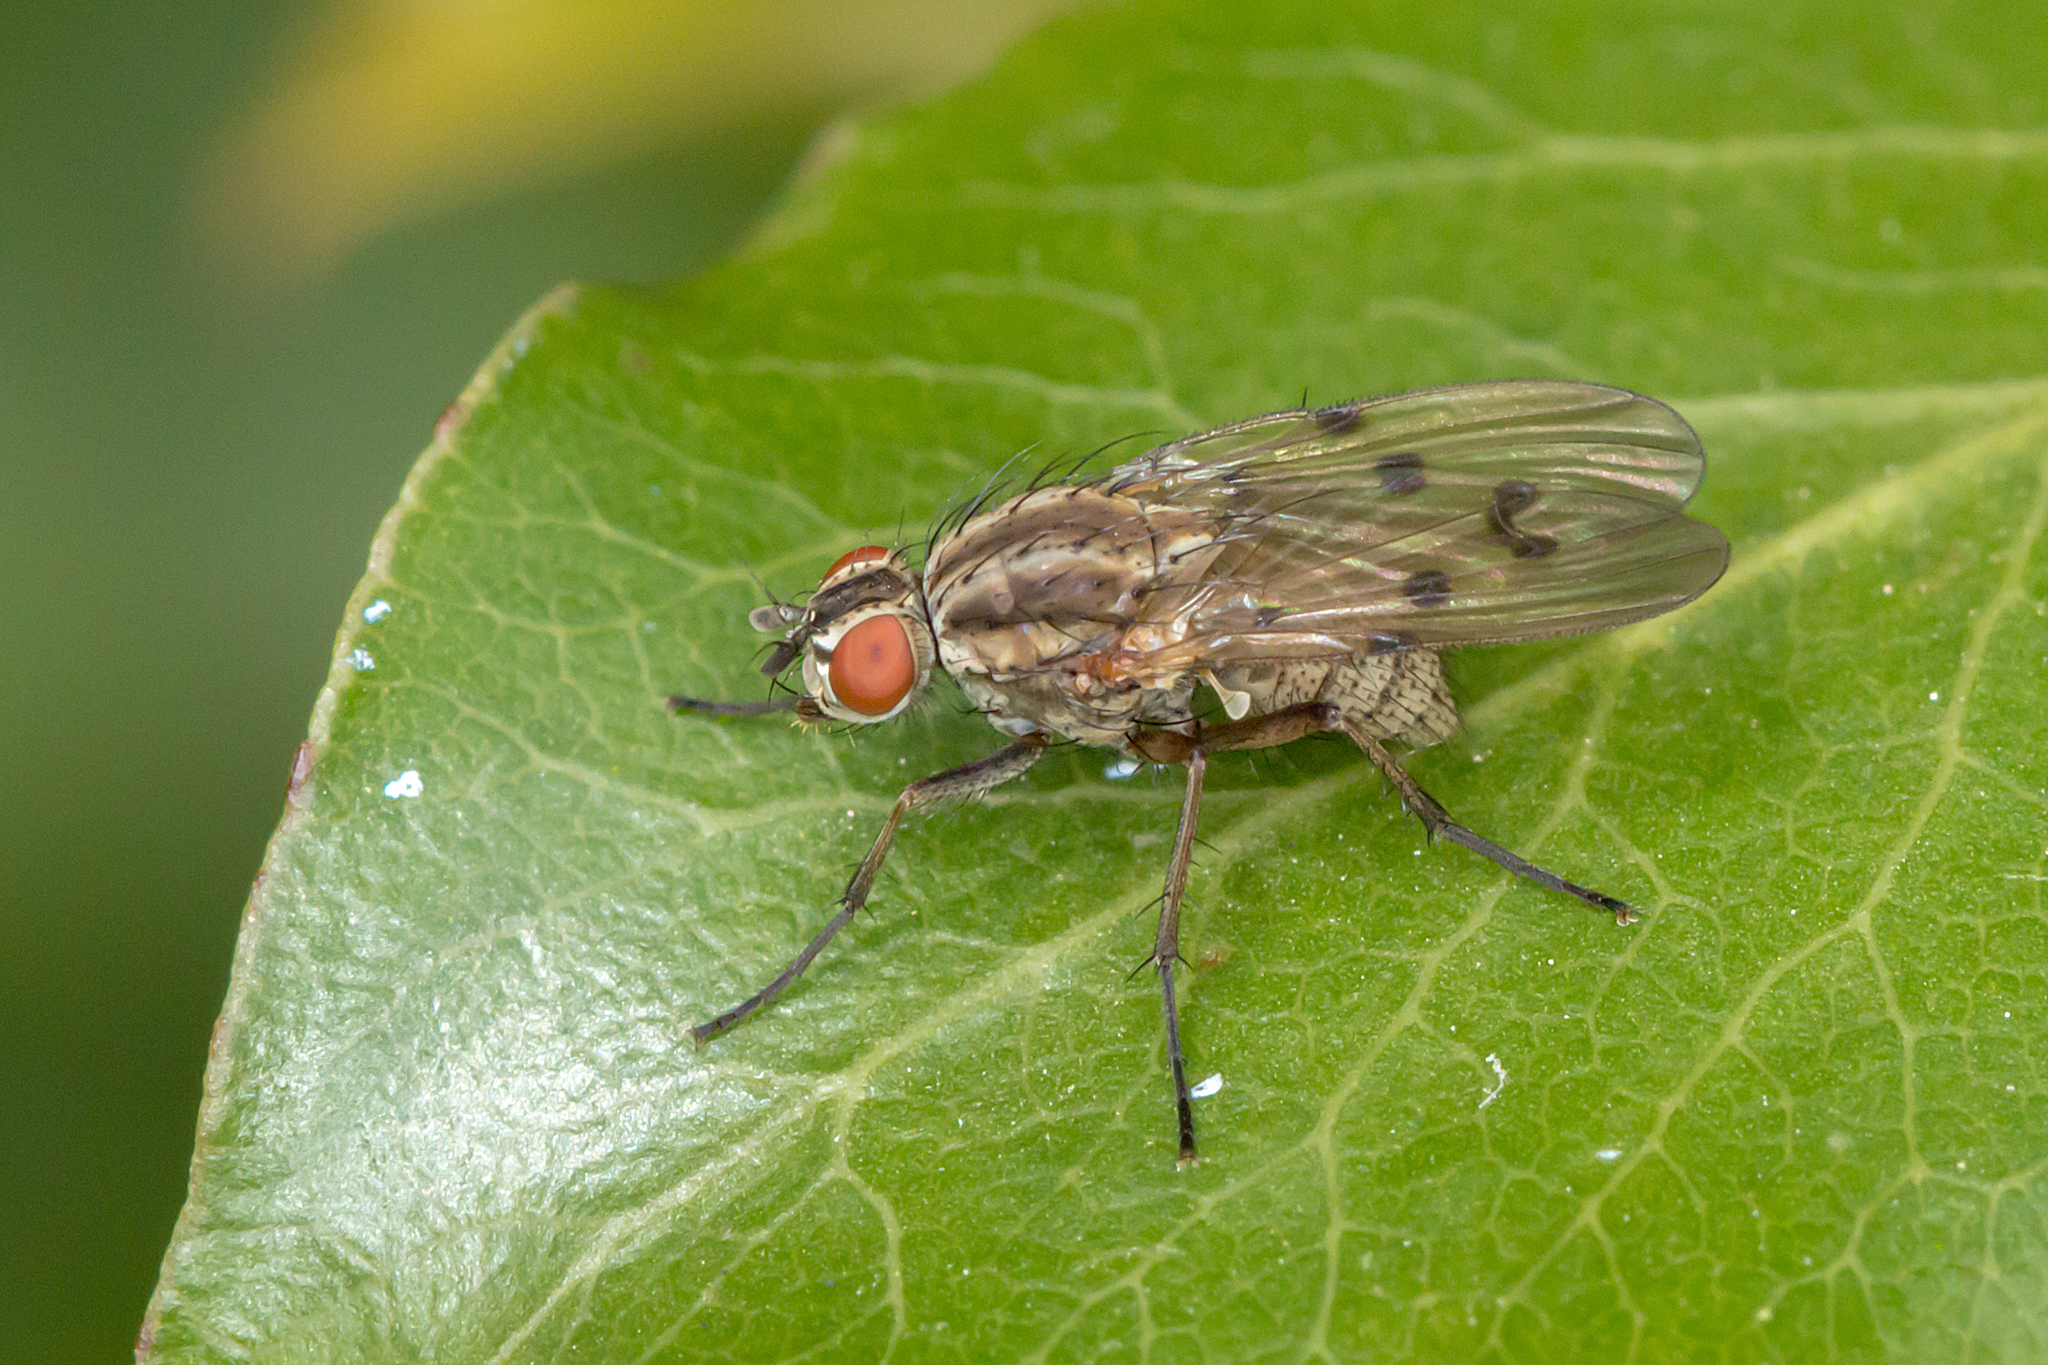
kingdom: Animalia
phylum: Arthropoda
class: Insecta
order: Diptera
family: Anthomyiidae
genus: Anthomyia
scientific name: Anthomyia punctipennis
